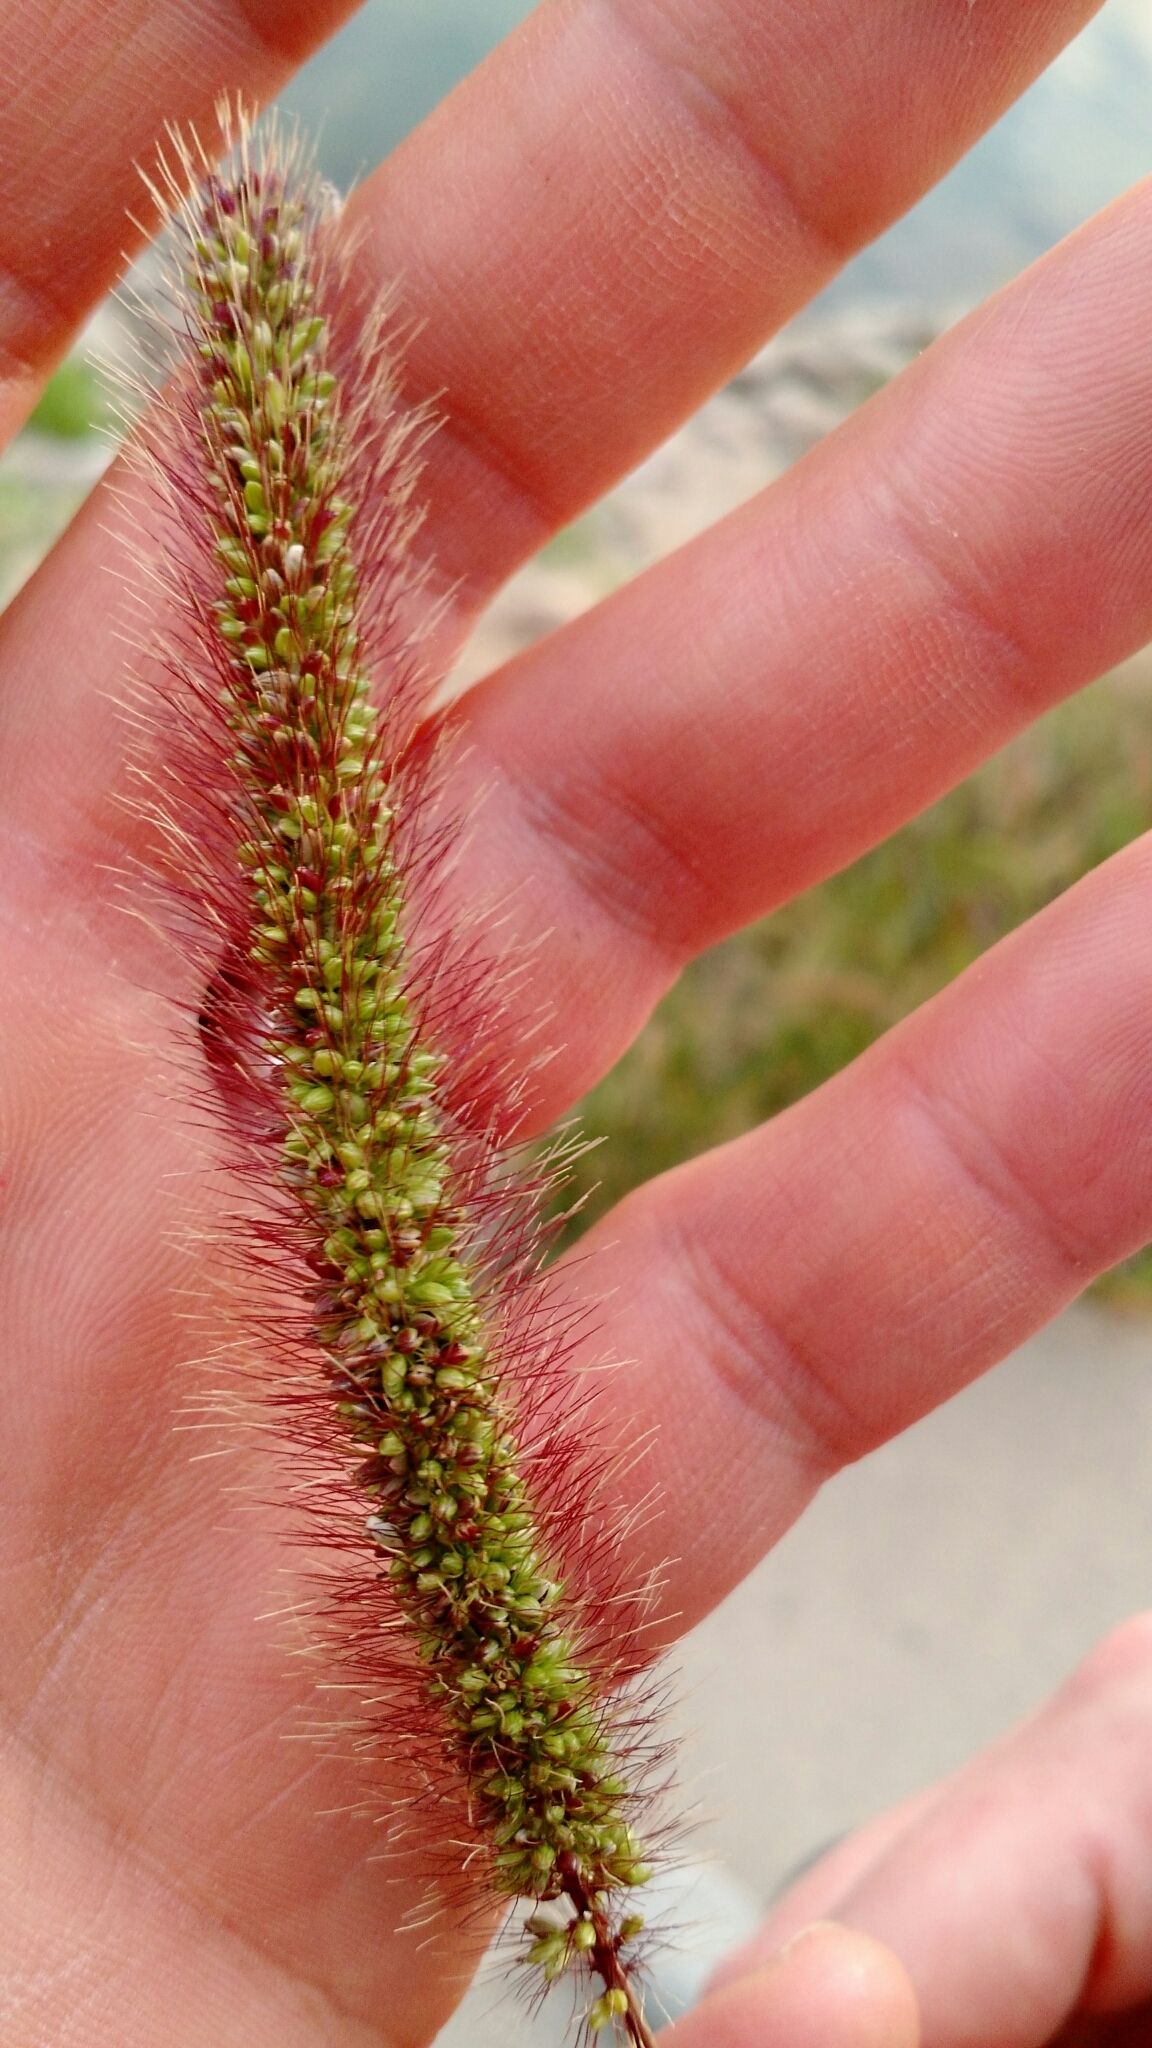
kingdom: Plantae
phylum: Tracheophyta
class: Liliopsida
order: Poales
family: Poaceae
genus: Setaria
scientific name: Setaria viridis
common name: Green bristlegrass
